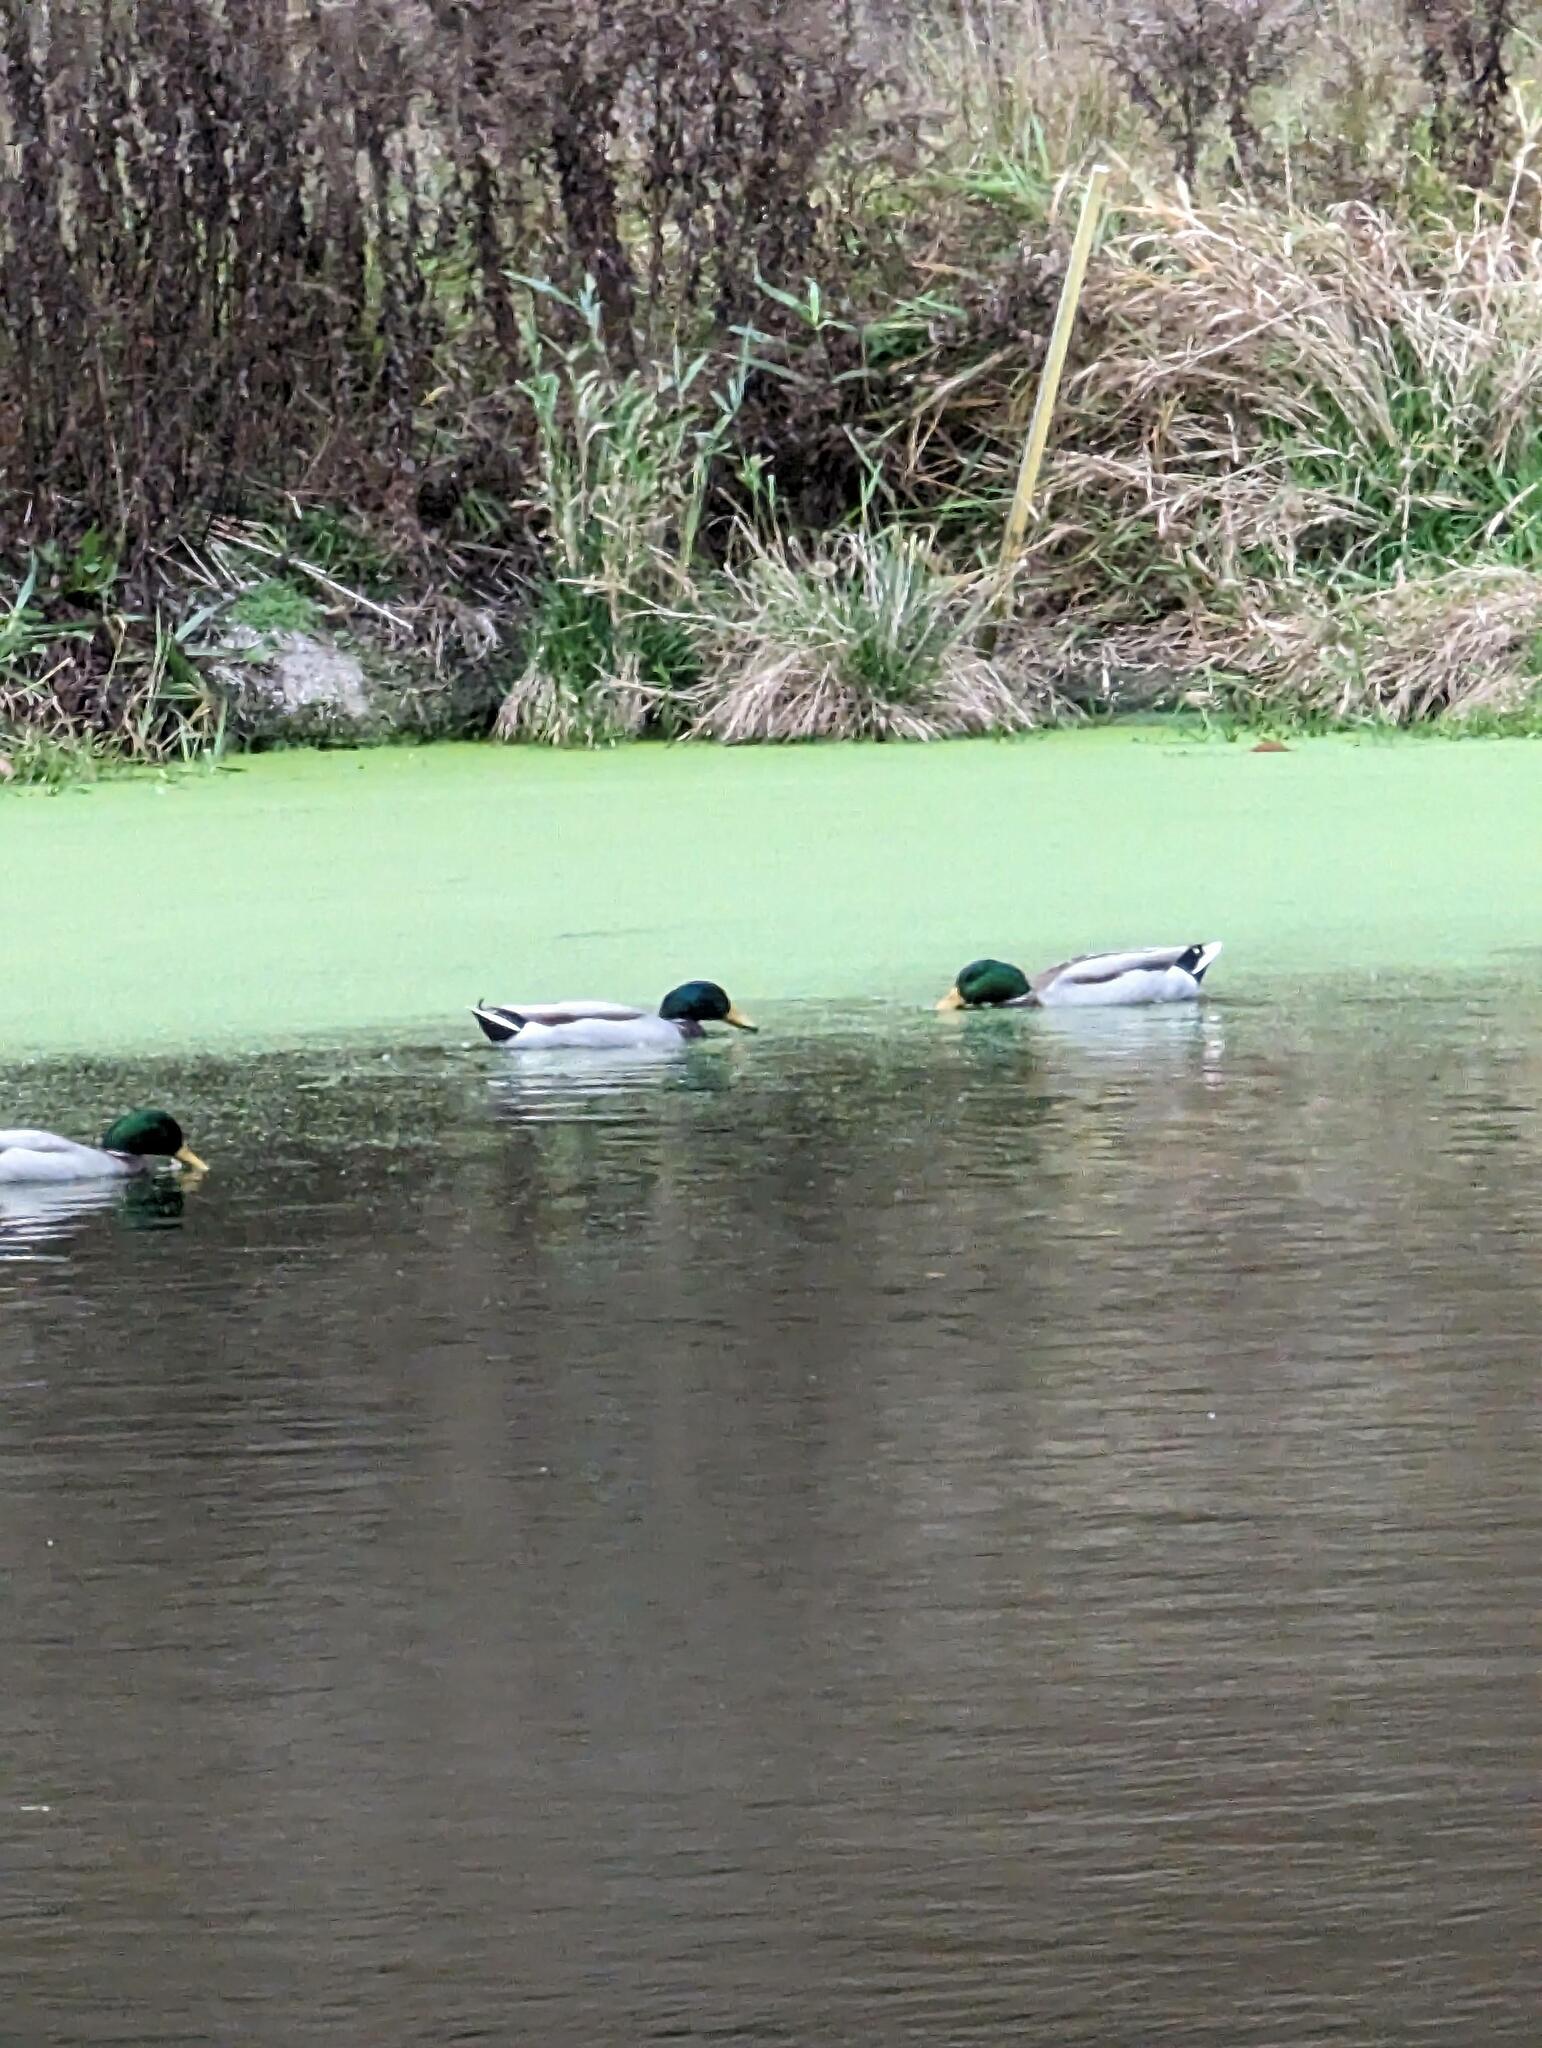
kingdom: Animalia
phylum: Chordata
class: Aves
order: Anseriformes
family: Anatidae
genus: Anas
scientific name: Anas platyrhynchos
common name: Mallard
